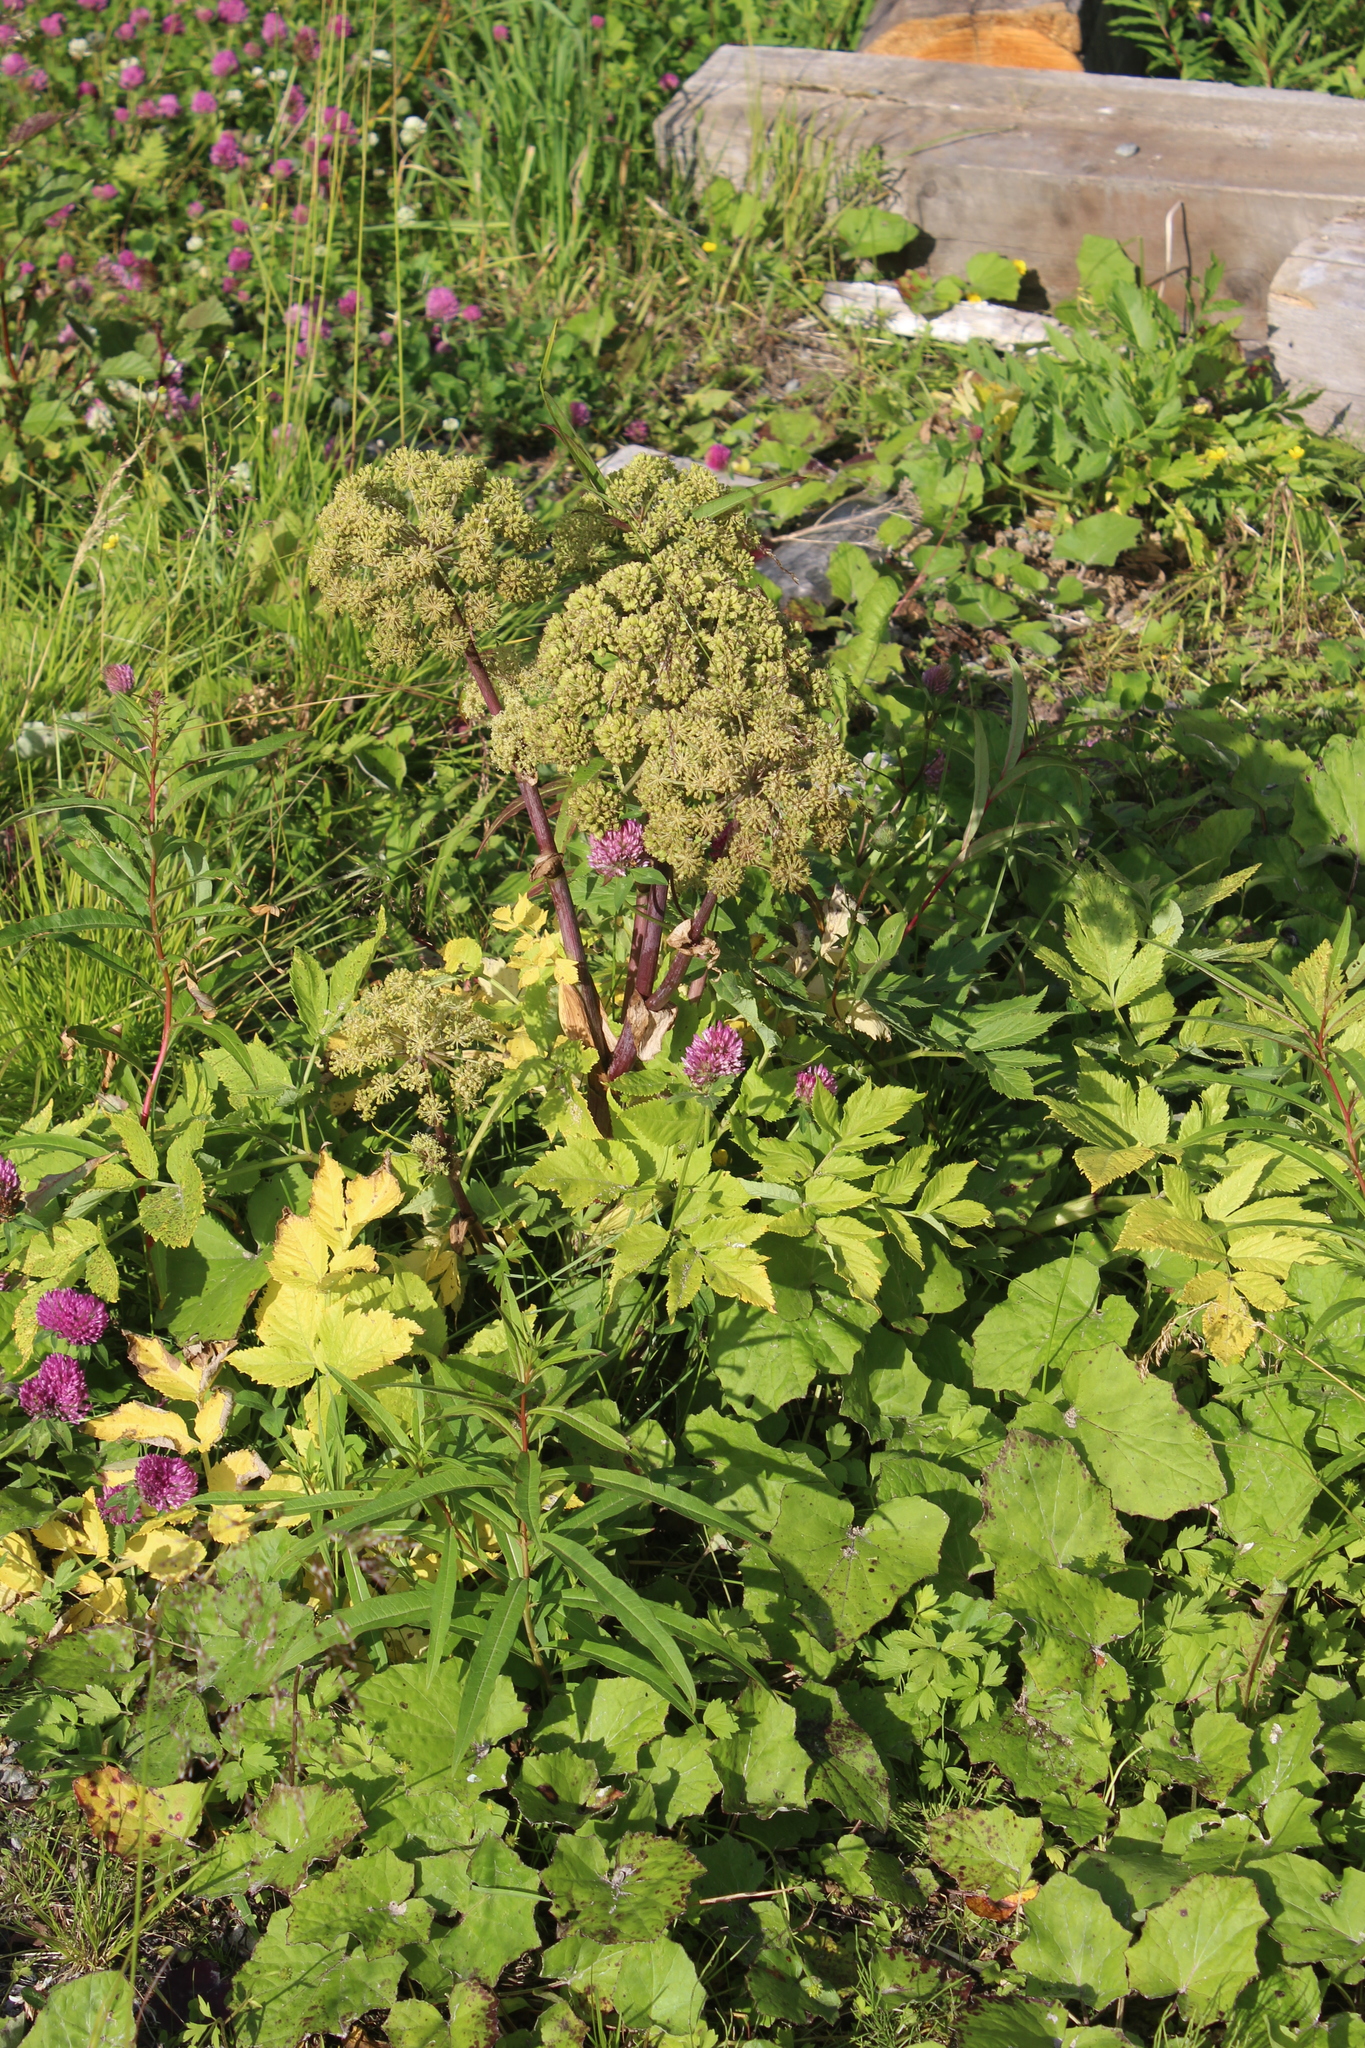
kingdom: Plantae
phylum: Tracheophyta
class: Magnoliopsida
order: Apiales
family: Apiaceae
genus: Angelica
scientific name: Angelica archangelica
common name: Garden angelica
